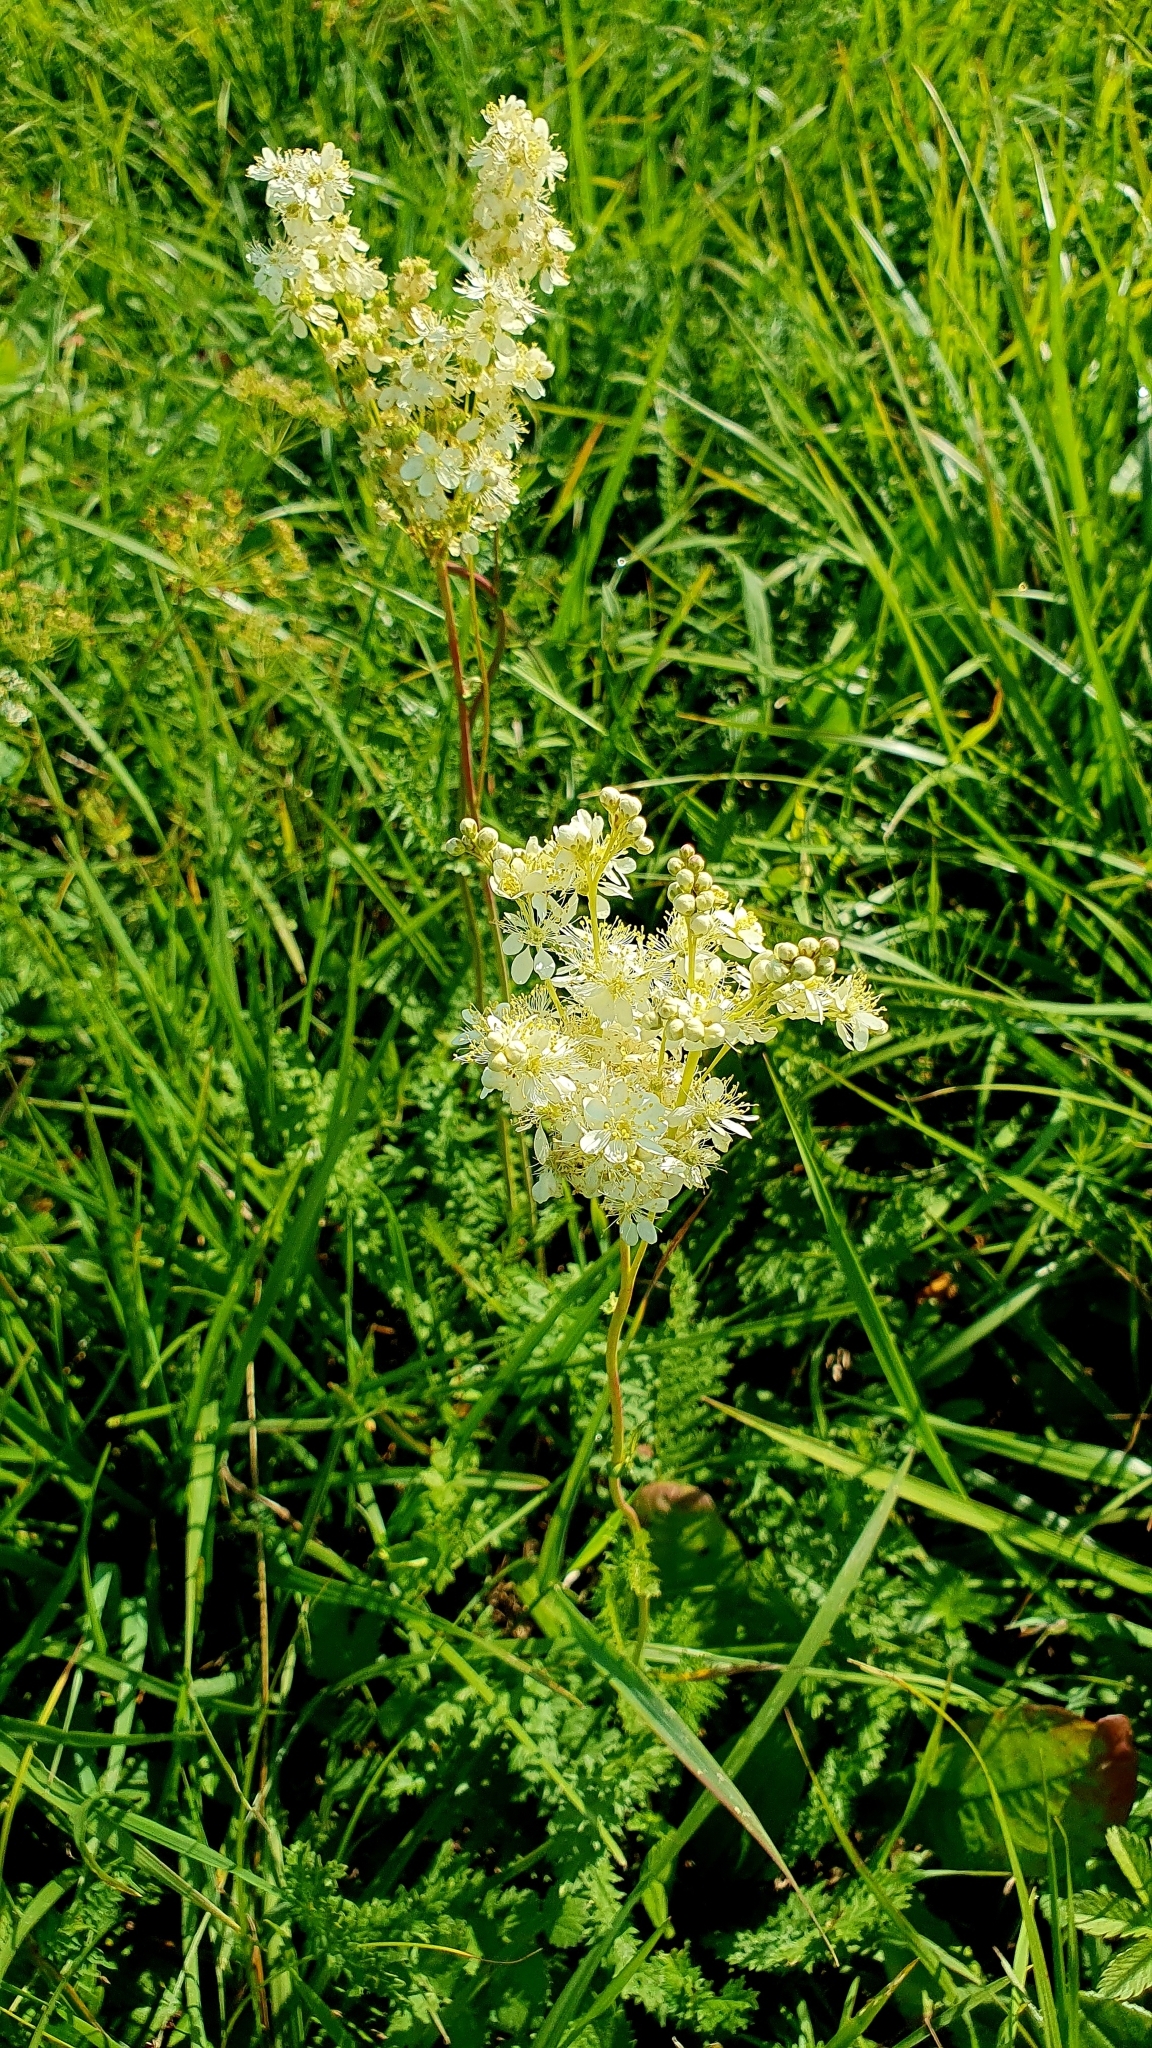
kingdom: Plantae
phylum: Tracheophyta
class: Magnoliopsida
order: Rosales
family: Rosaceae
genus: Filipendula
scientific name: Filipendula vulgaris
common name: Dropwort
